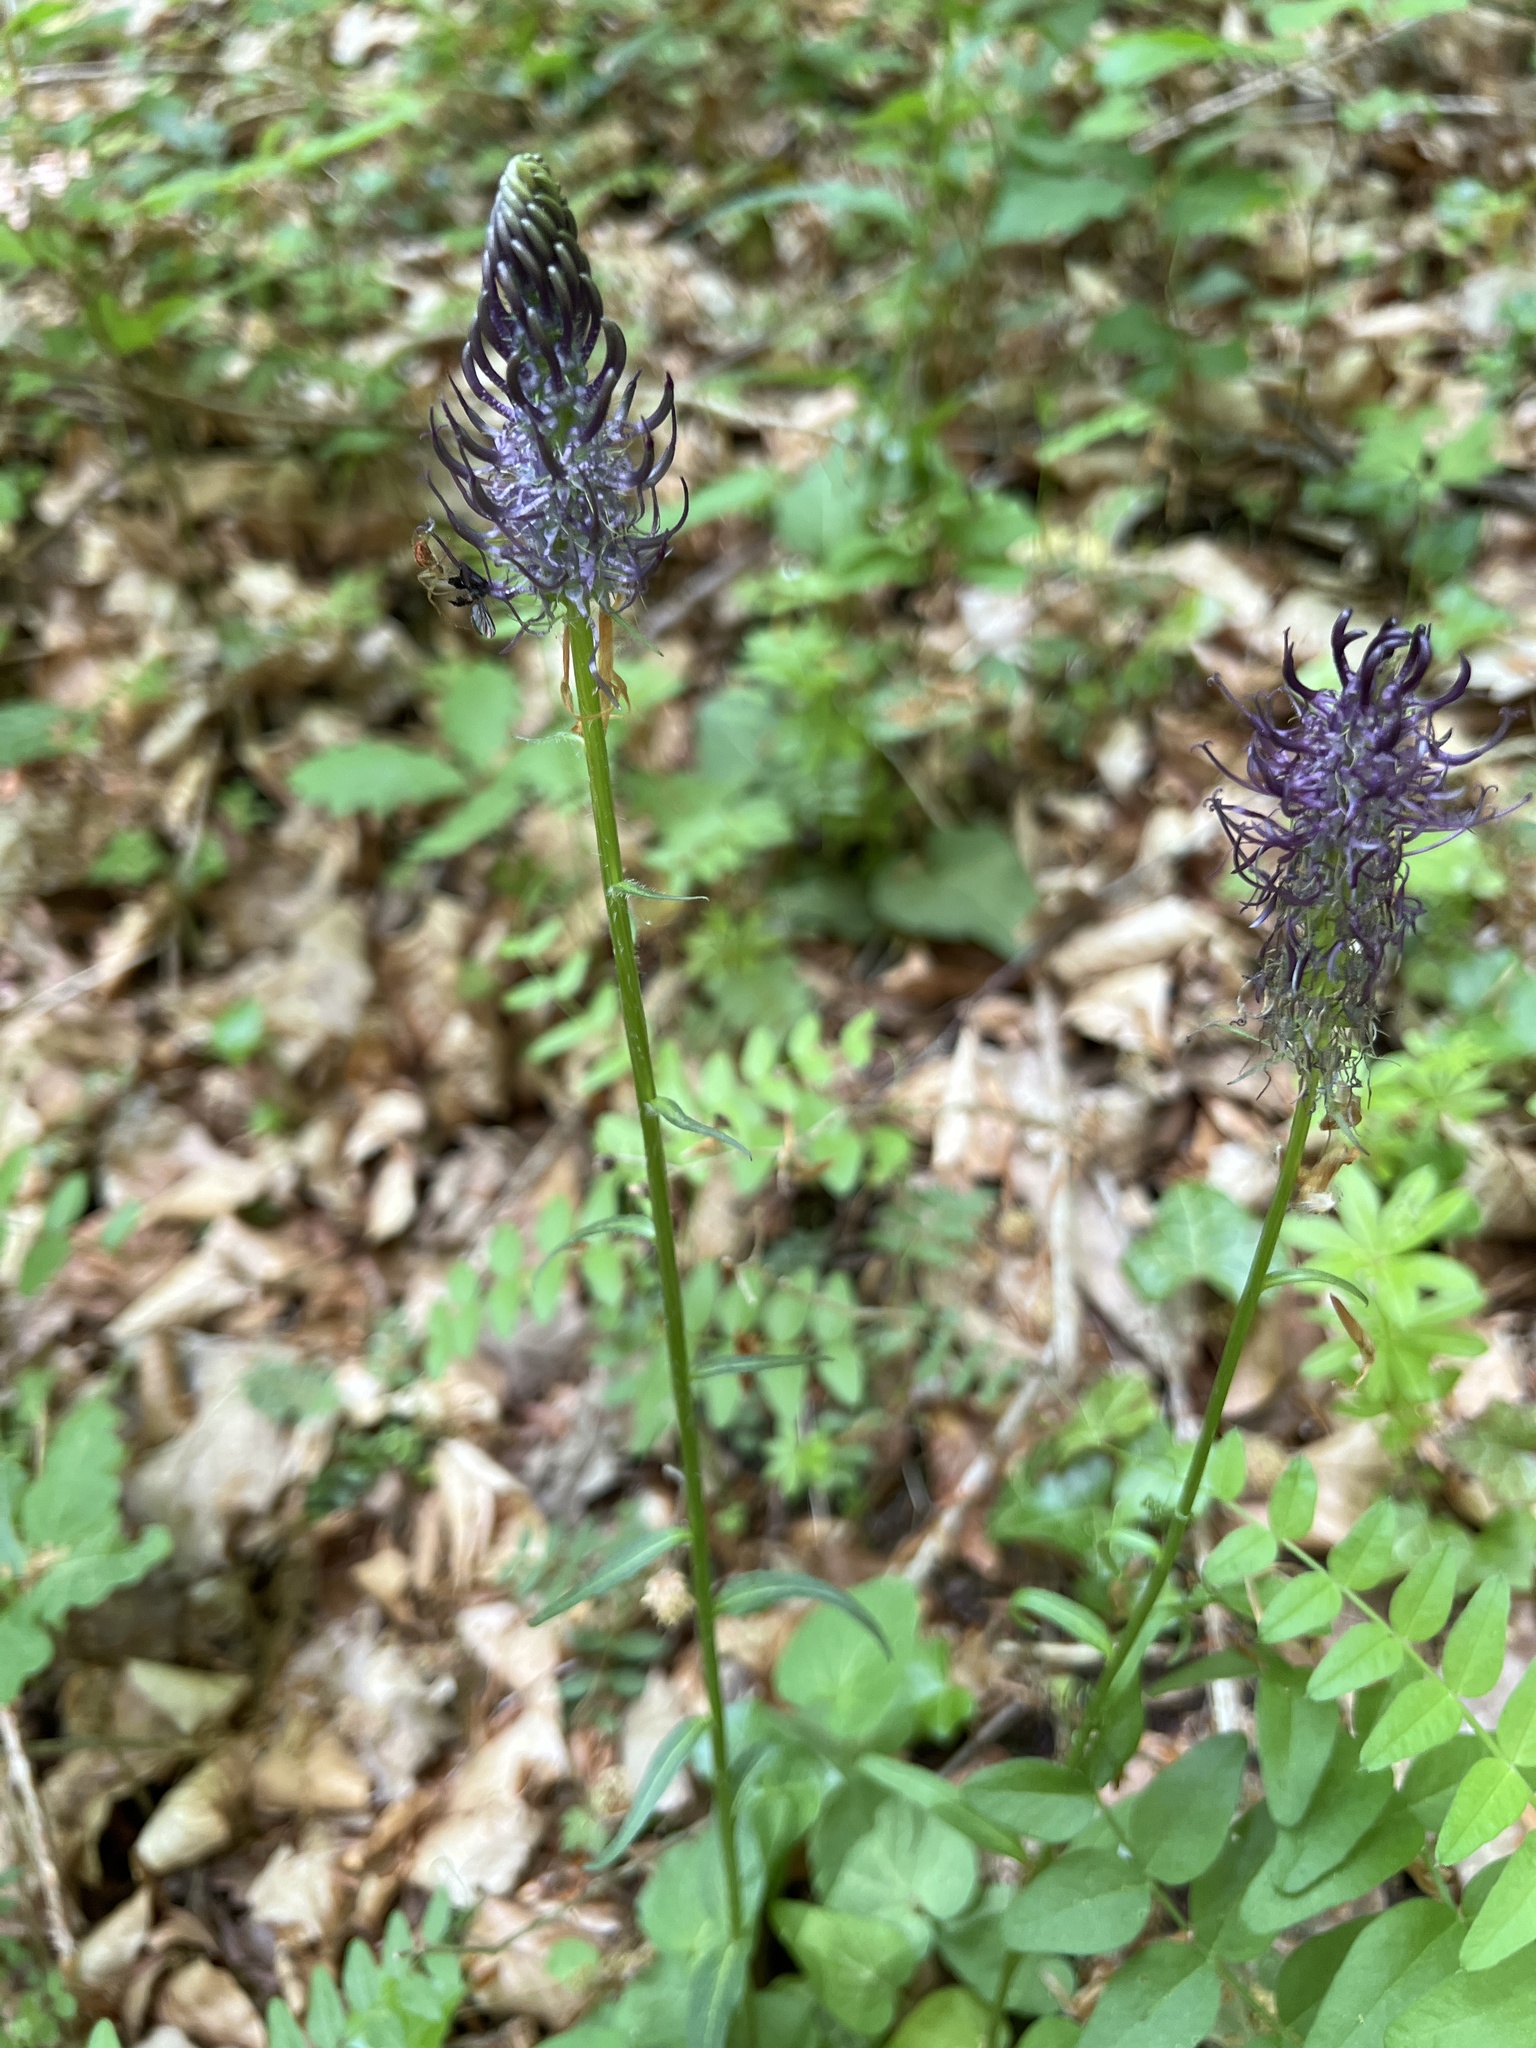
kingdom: Plantae
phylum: Tracheophyta
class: Magnoliopsida
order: Asterales
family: Campanulaceae
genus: Phyteuma
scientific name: Phyteuma nigrum
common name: Black rampion
